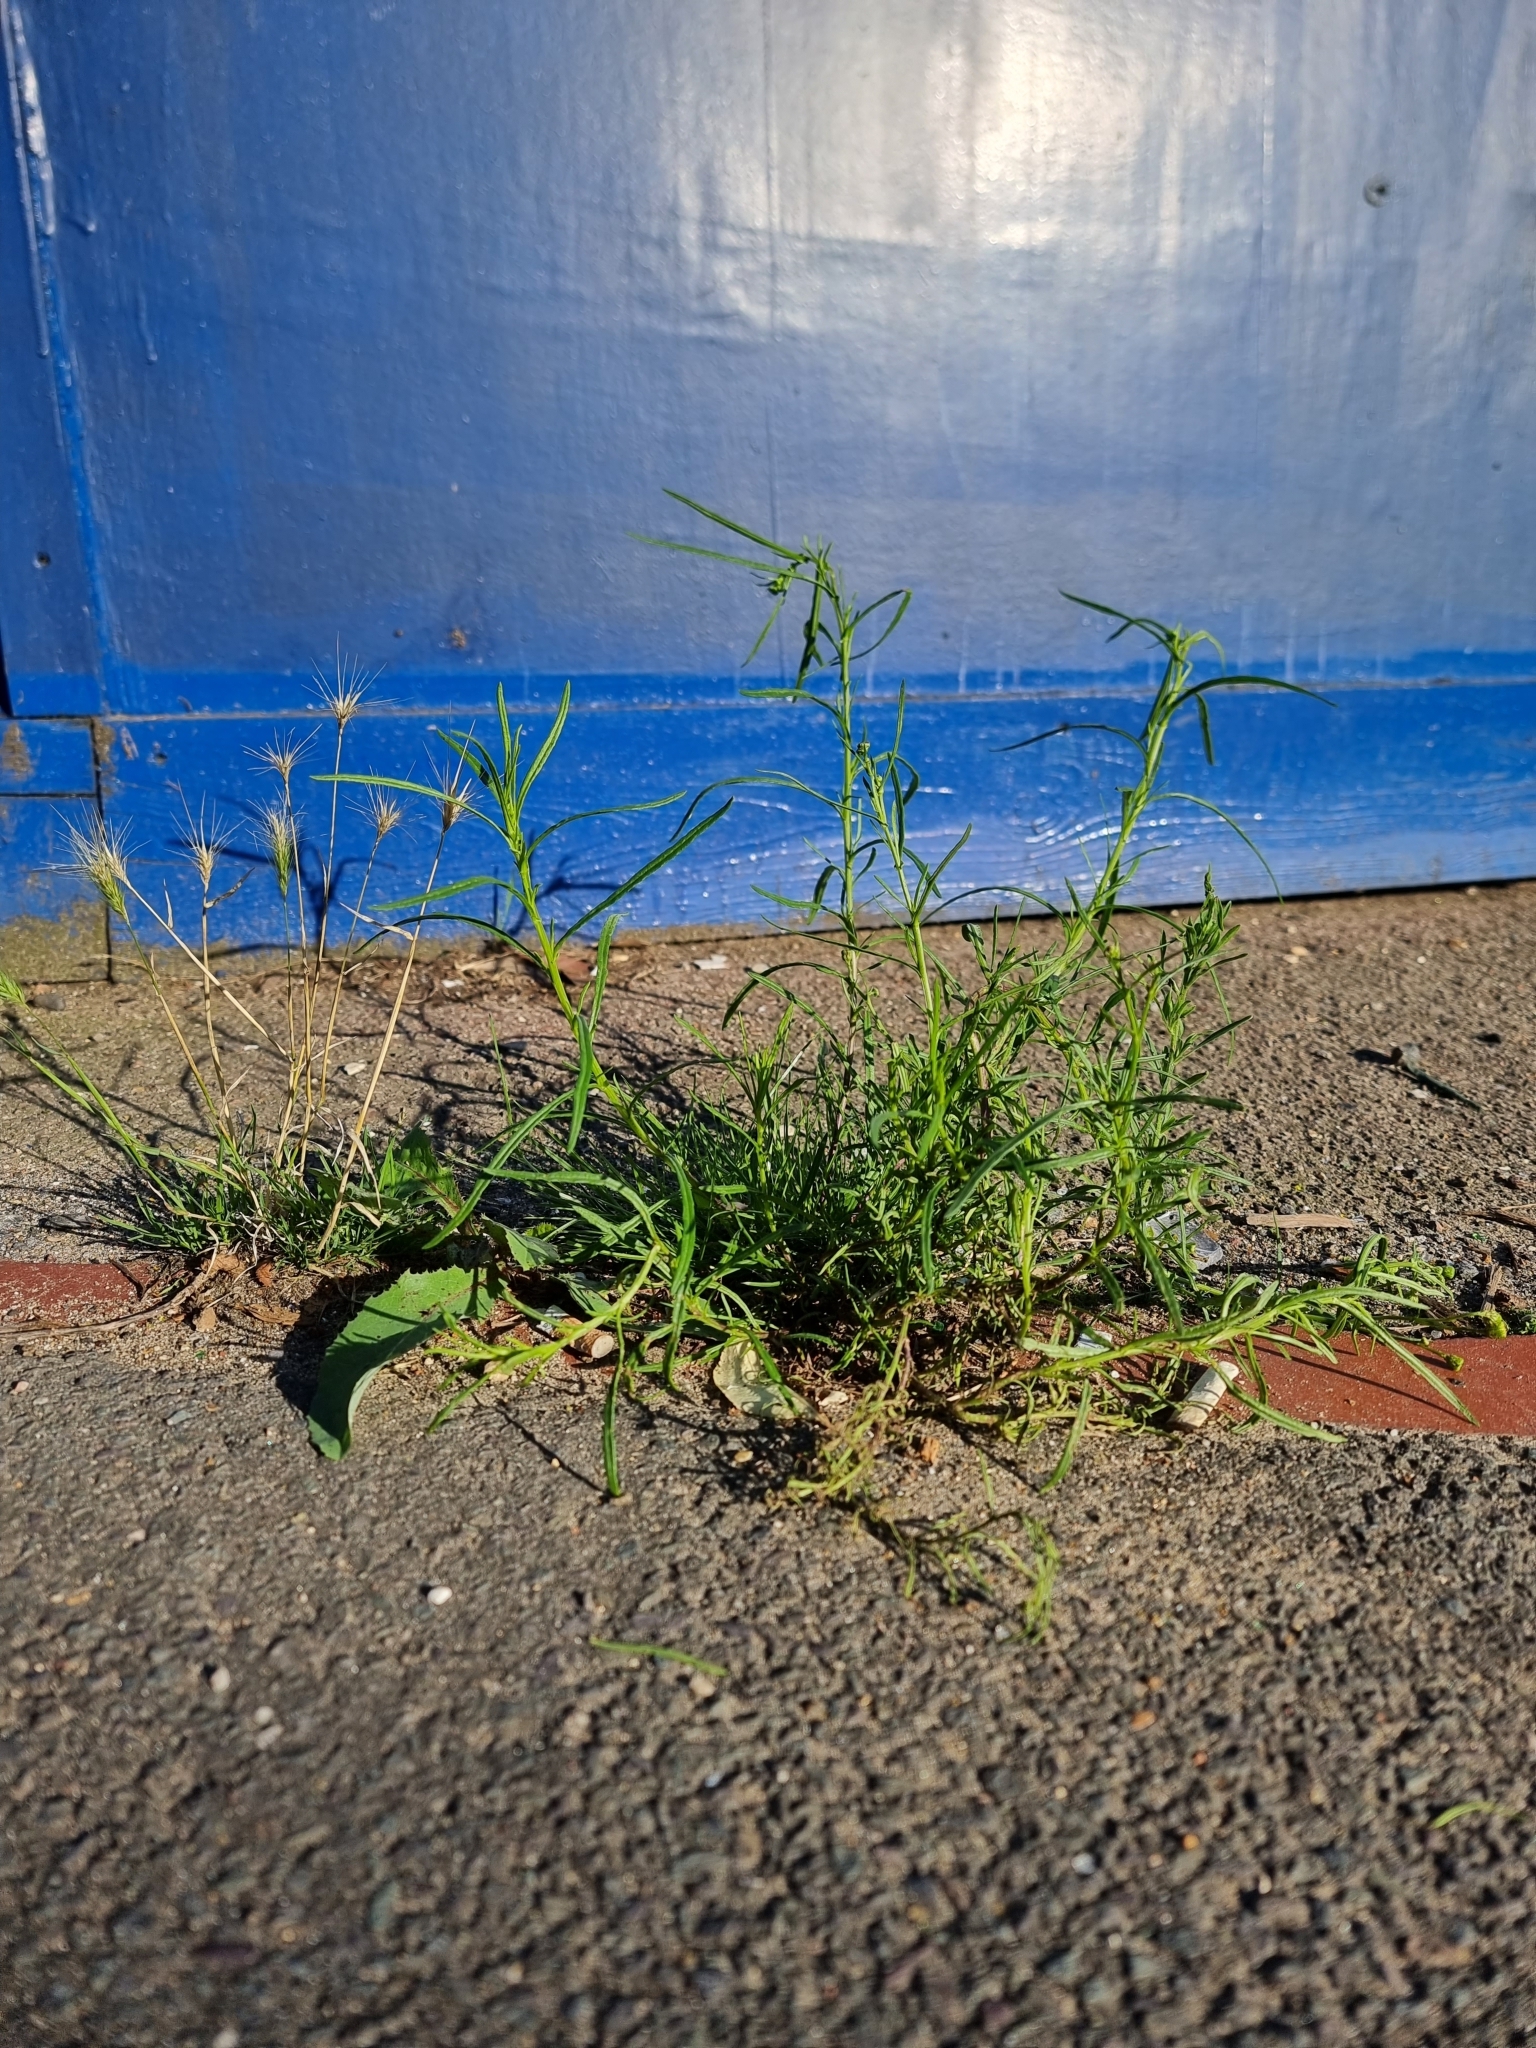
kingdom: Plantae
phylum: Tracheophyta
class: Magnoliopsida
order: Asterales
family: Asteraceae
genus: Senecio
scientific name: Senecio inaequidens
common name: Narrow-leaved ragwort
